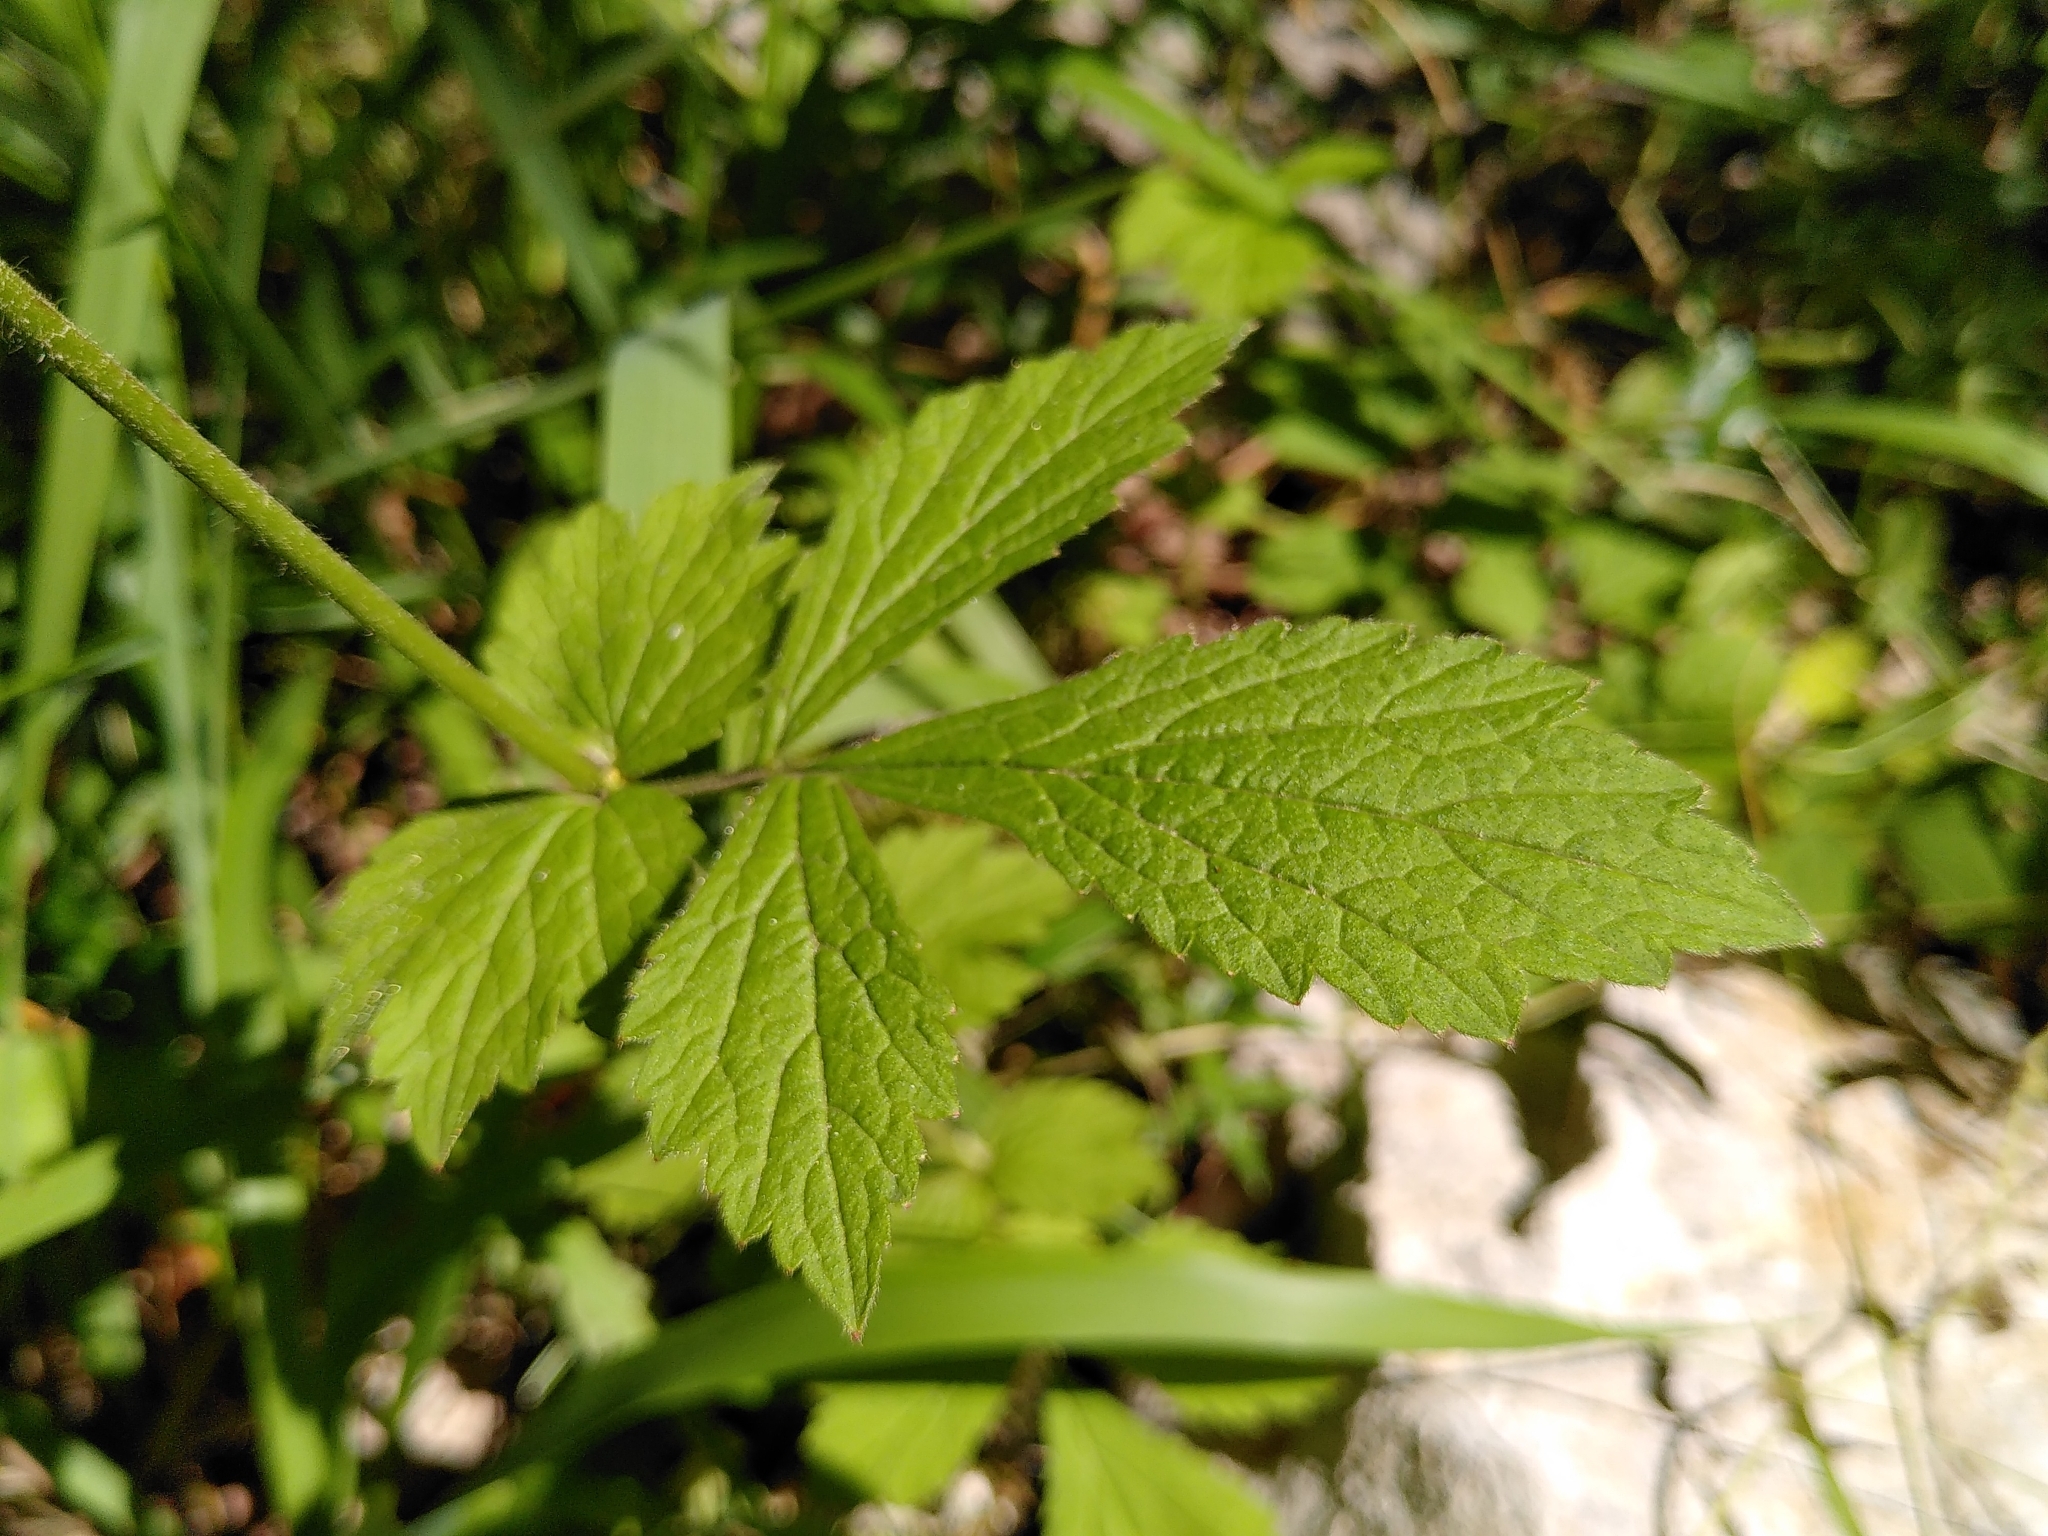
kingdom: Plantae
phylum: Tracheophyta
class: Magnoliopsida
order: Rosales
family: Rosaceae
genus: Geum
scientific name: Geum urbanum
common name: Wood avens
